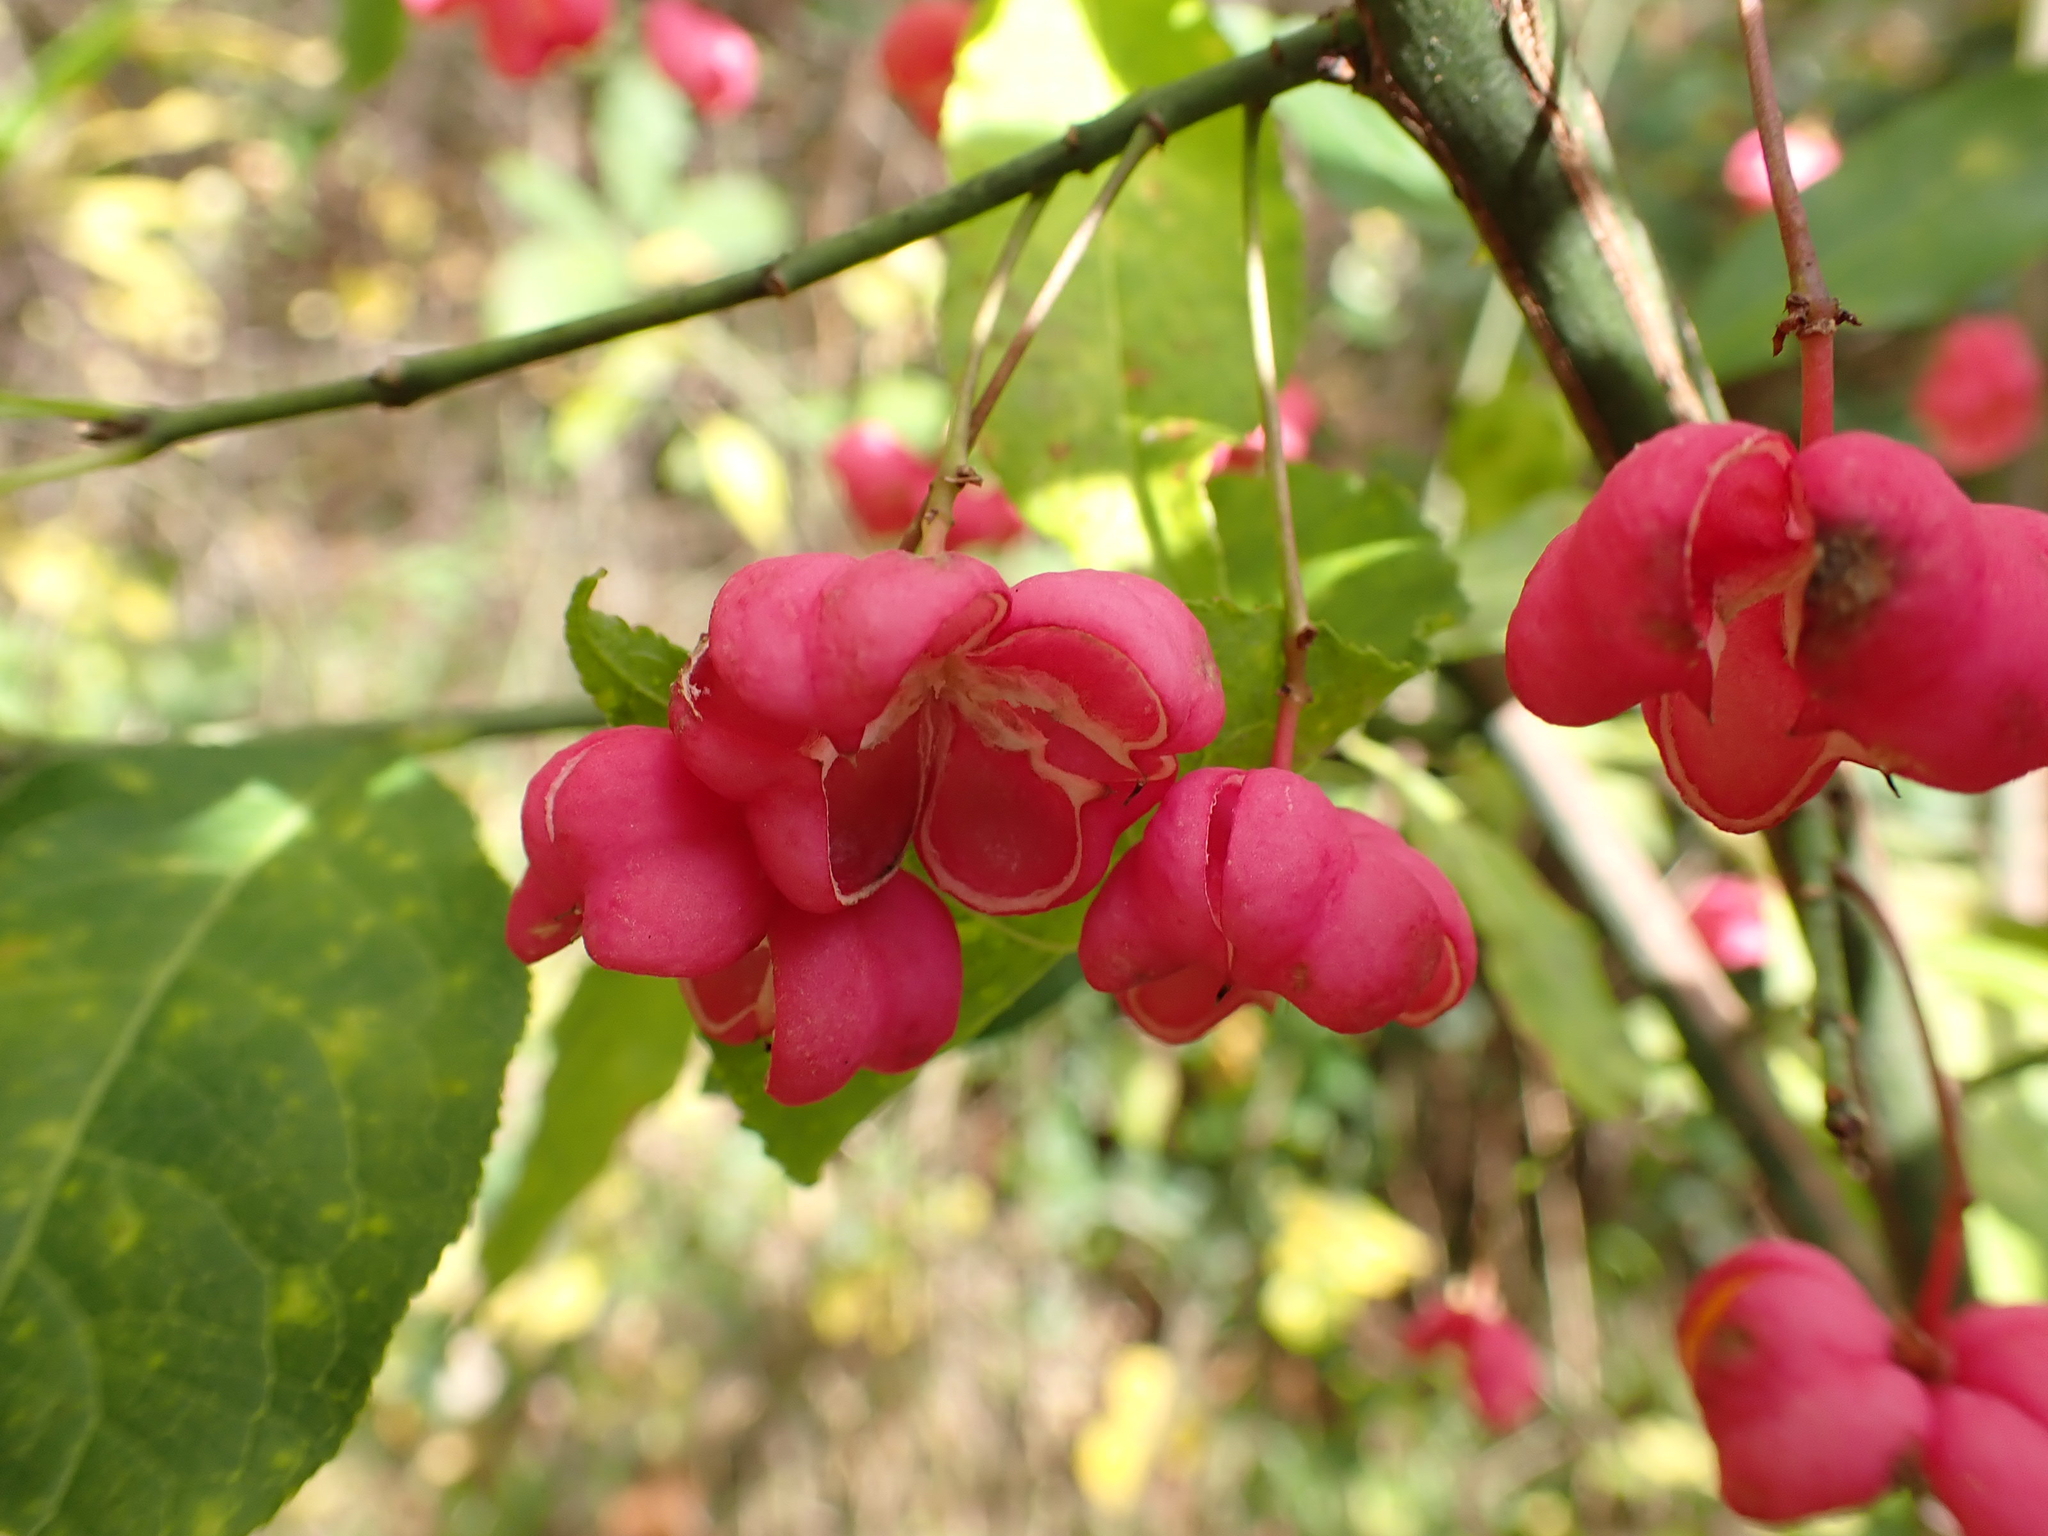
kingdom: Plantae
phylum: Tracheophyta
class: Magnoliopsida
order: Celastrales
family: Celastraceae
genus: Euonymus
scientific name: Euonymus europaeus
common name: Spindle
